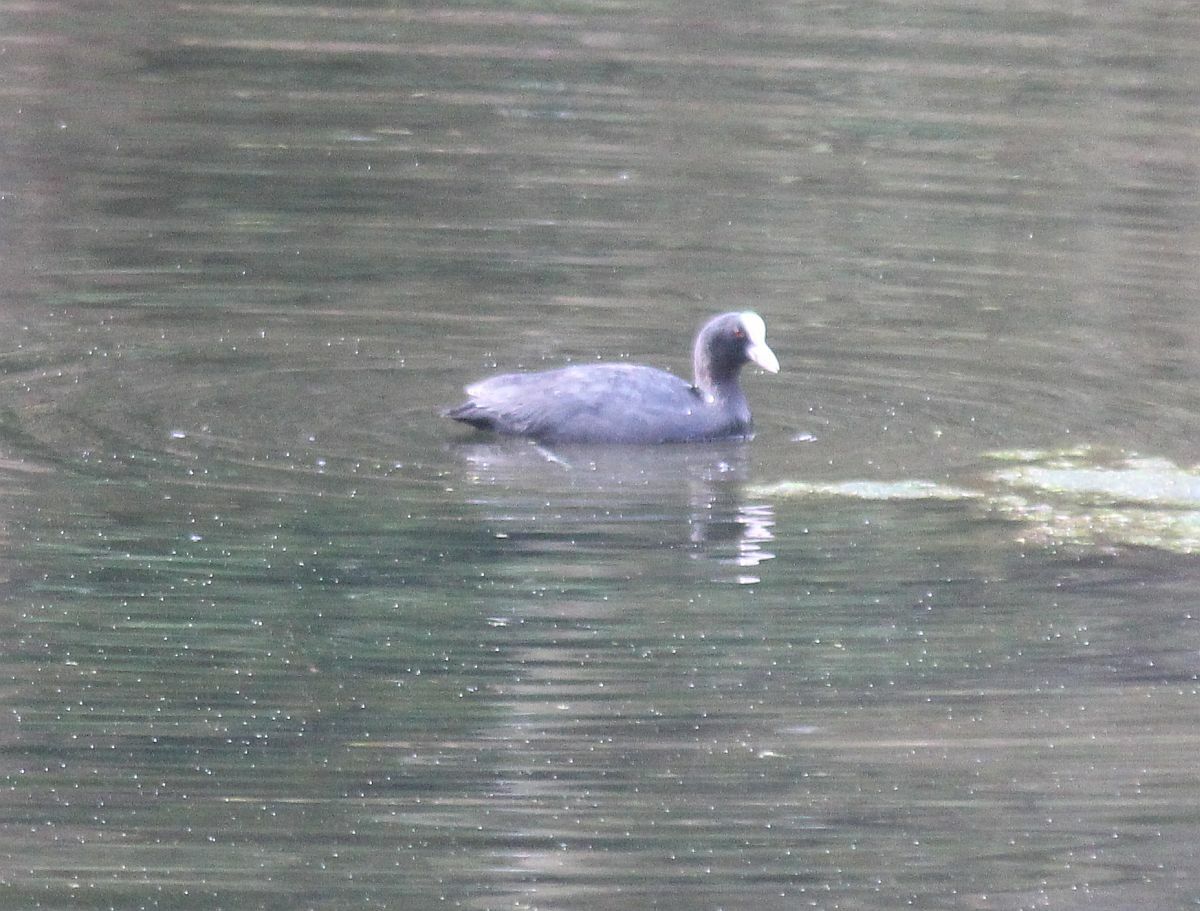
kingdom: Animalia
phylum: Chordata
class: Aves
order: Gruiformes
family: Rallidae
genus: Fulica
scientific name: Fulica atra
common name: Eurasian coot
